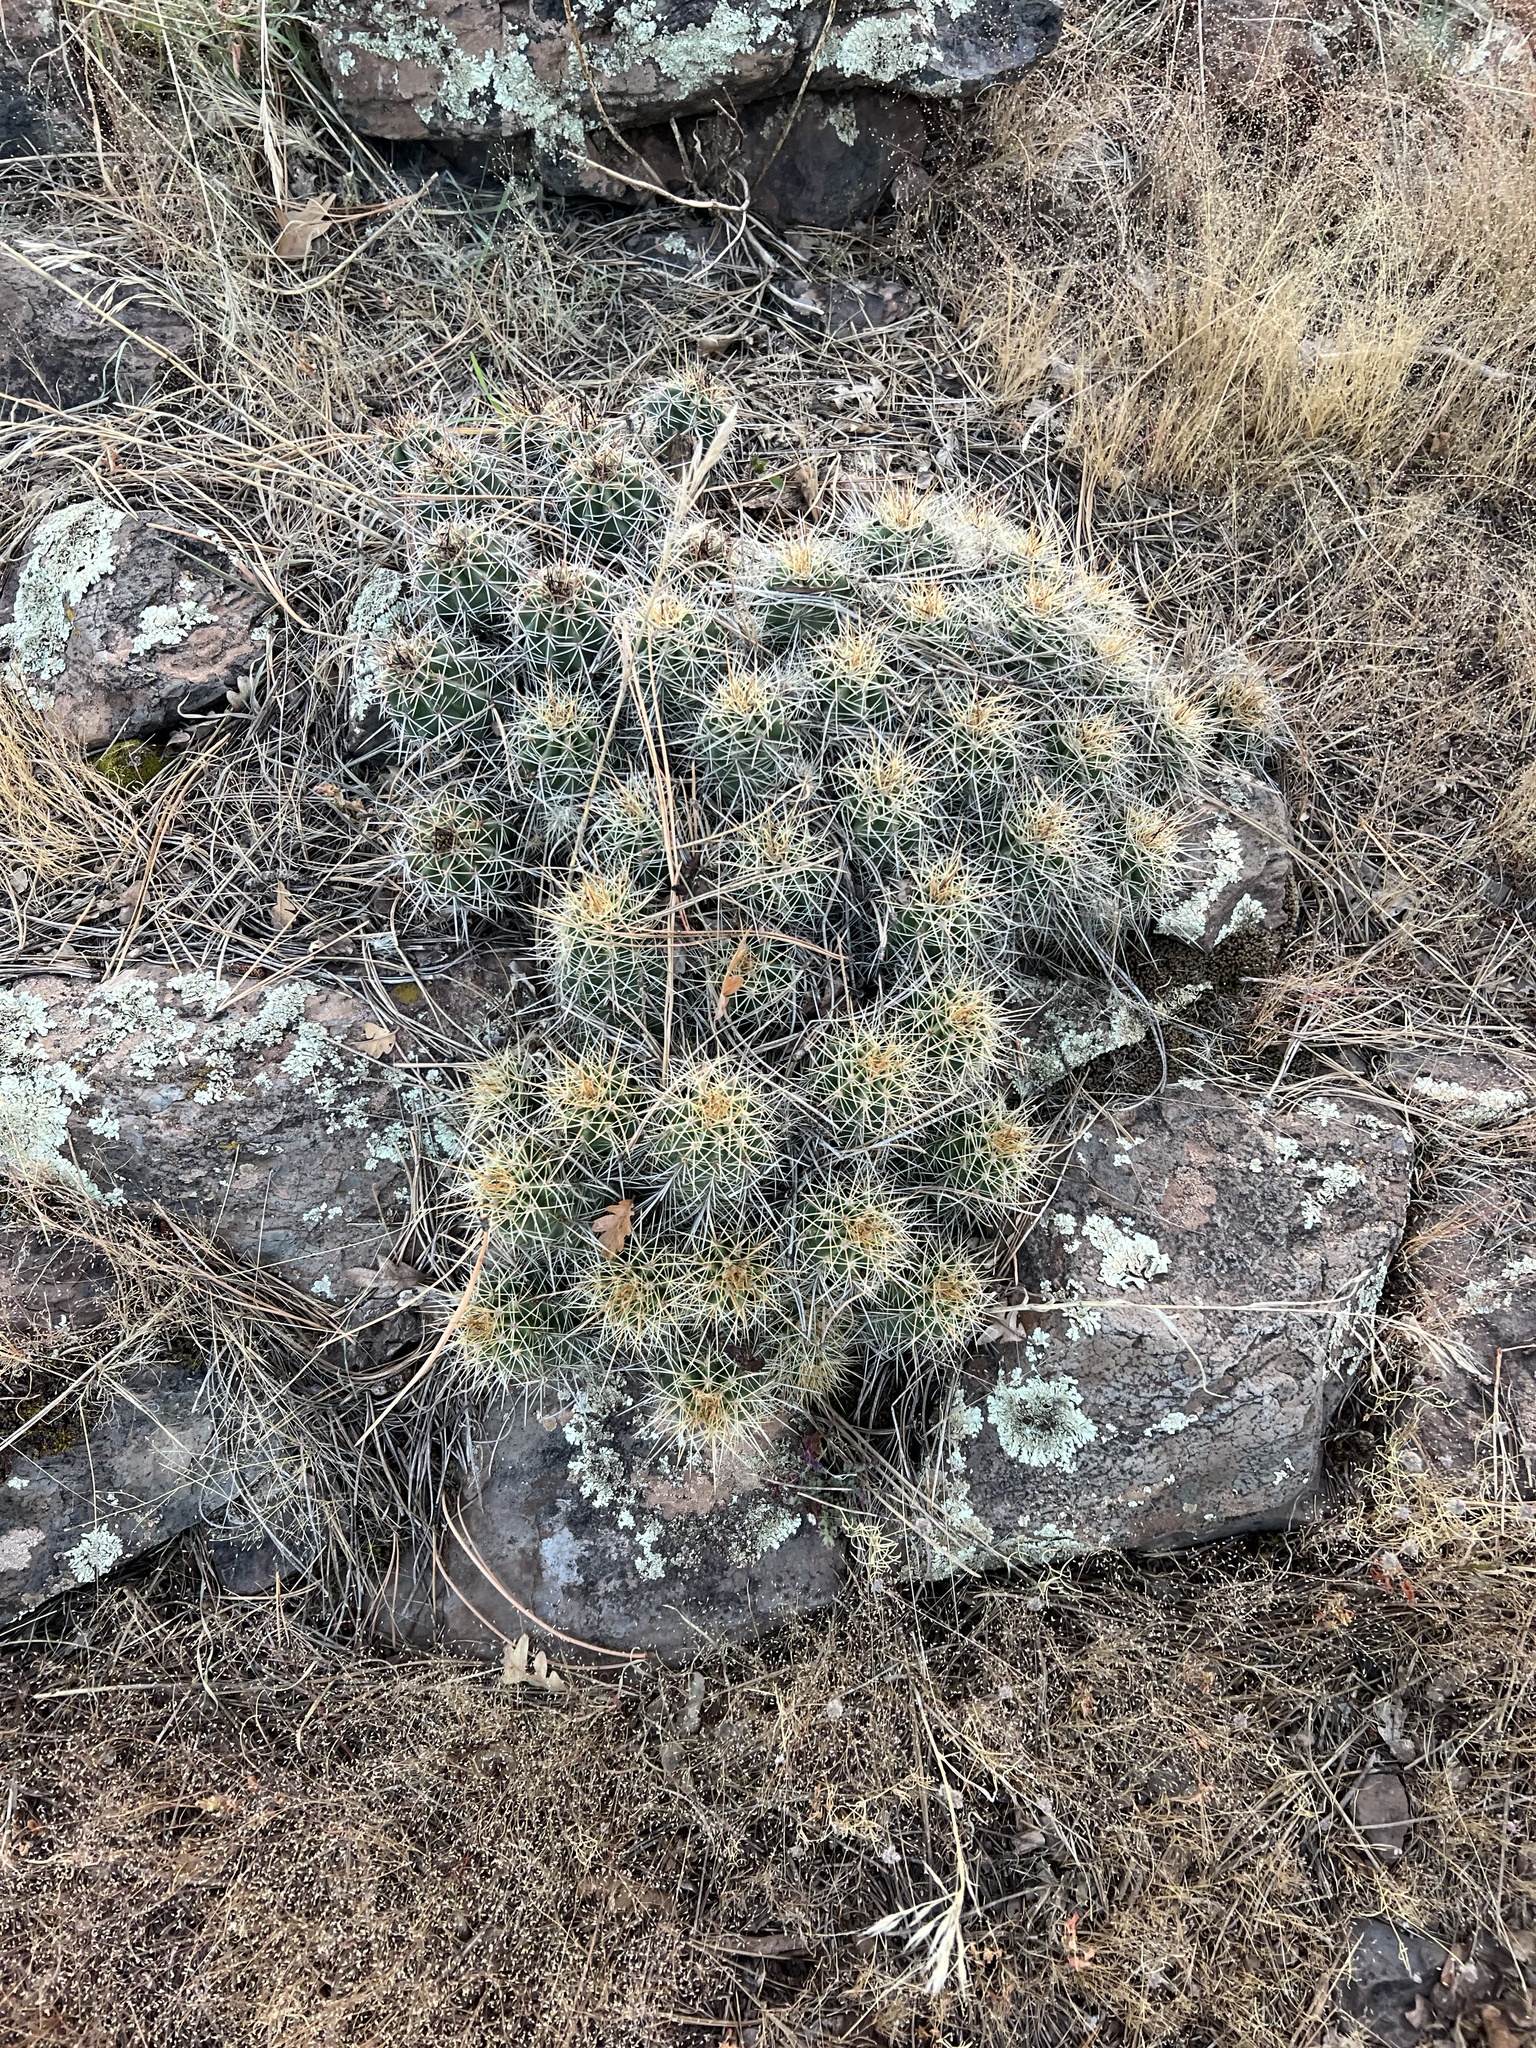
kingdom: Plantae
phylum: Tracheophyta
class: Magnoliopsida
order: Caryophyllales
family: Cactaceae
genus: Echinocereus
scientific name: Echinocereus bakeri
